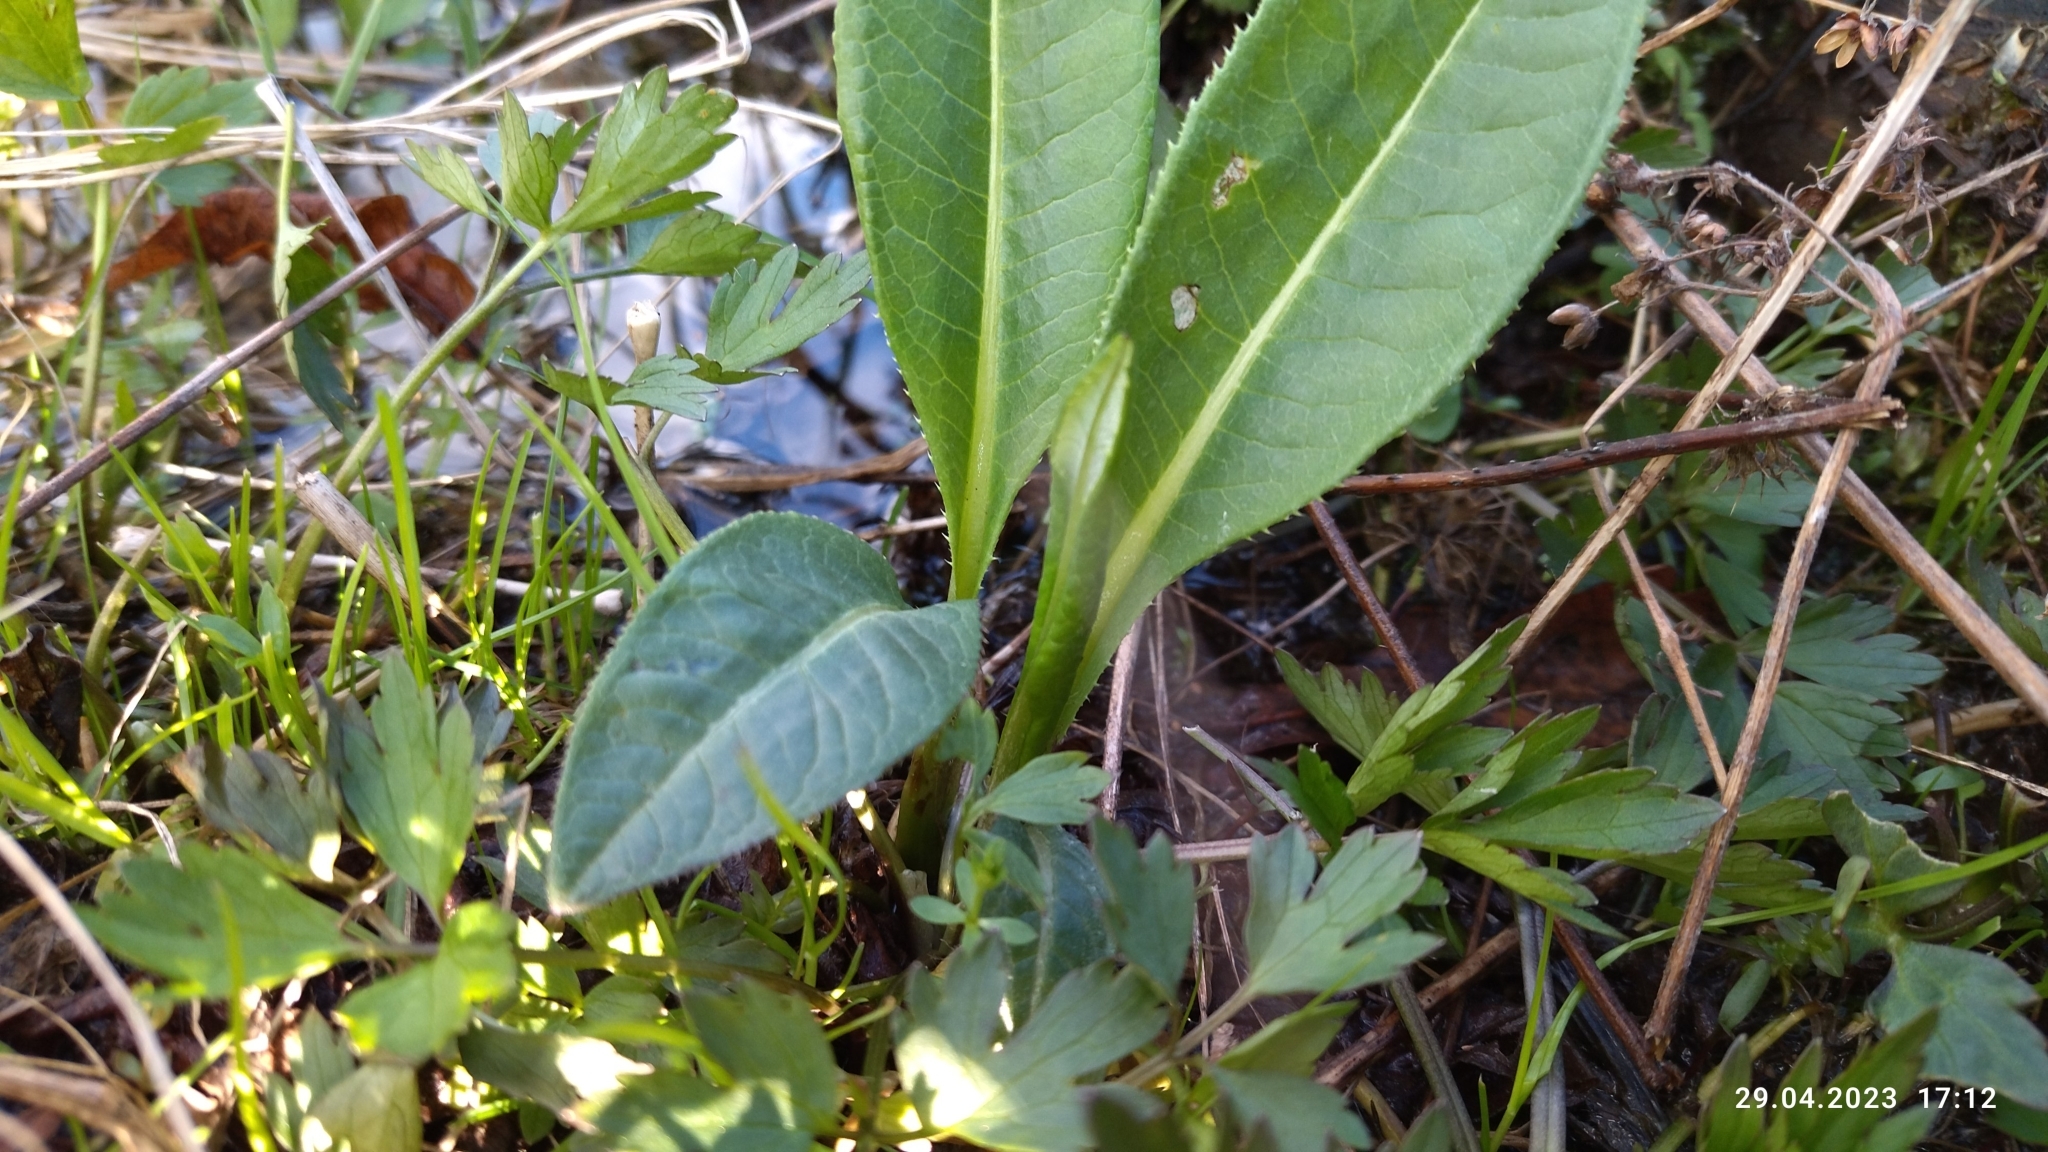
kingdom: Plantae
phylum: Tracheophyta
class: Magnoliopsida
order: Asterales
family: Asteraceae
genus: Cirsium
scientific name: Cirsium heterophyllum
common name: Melancholy thistle
